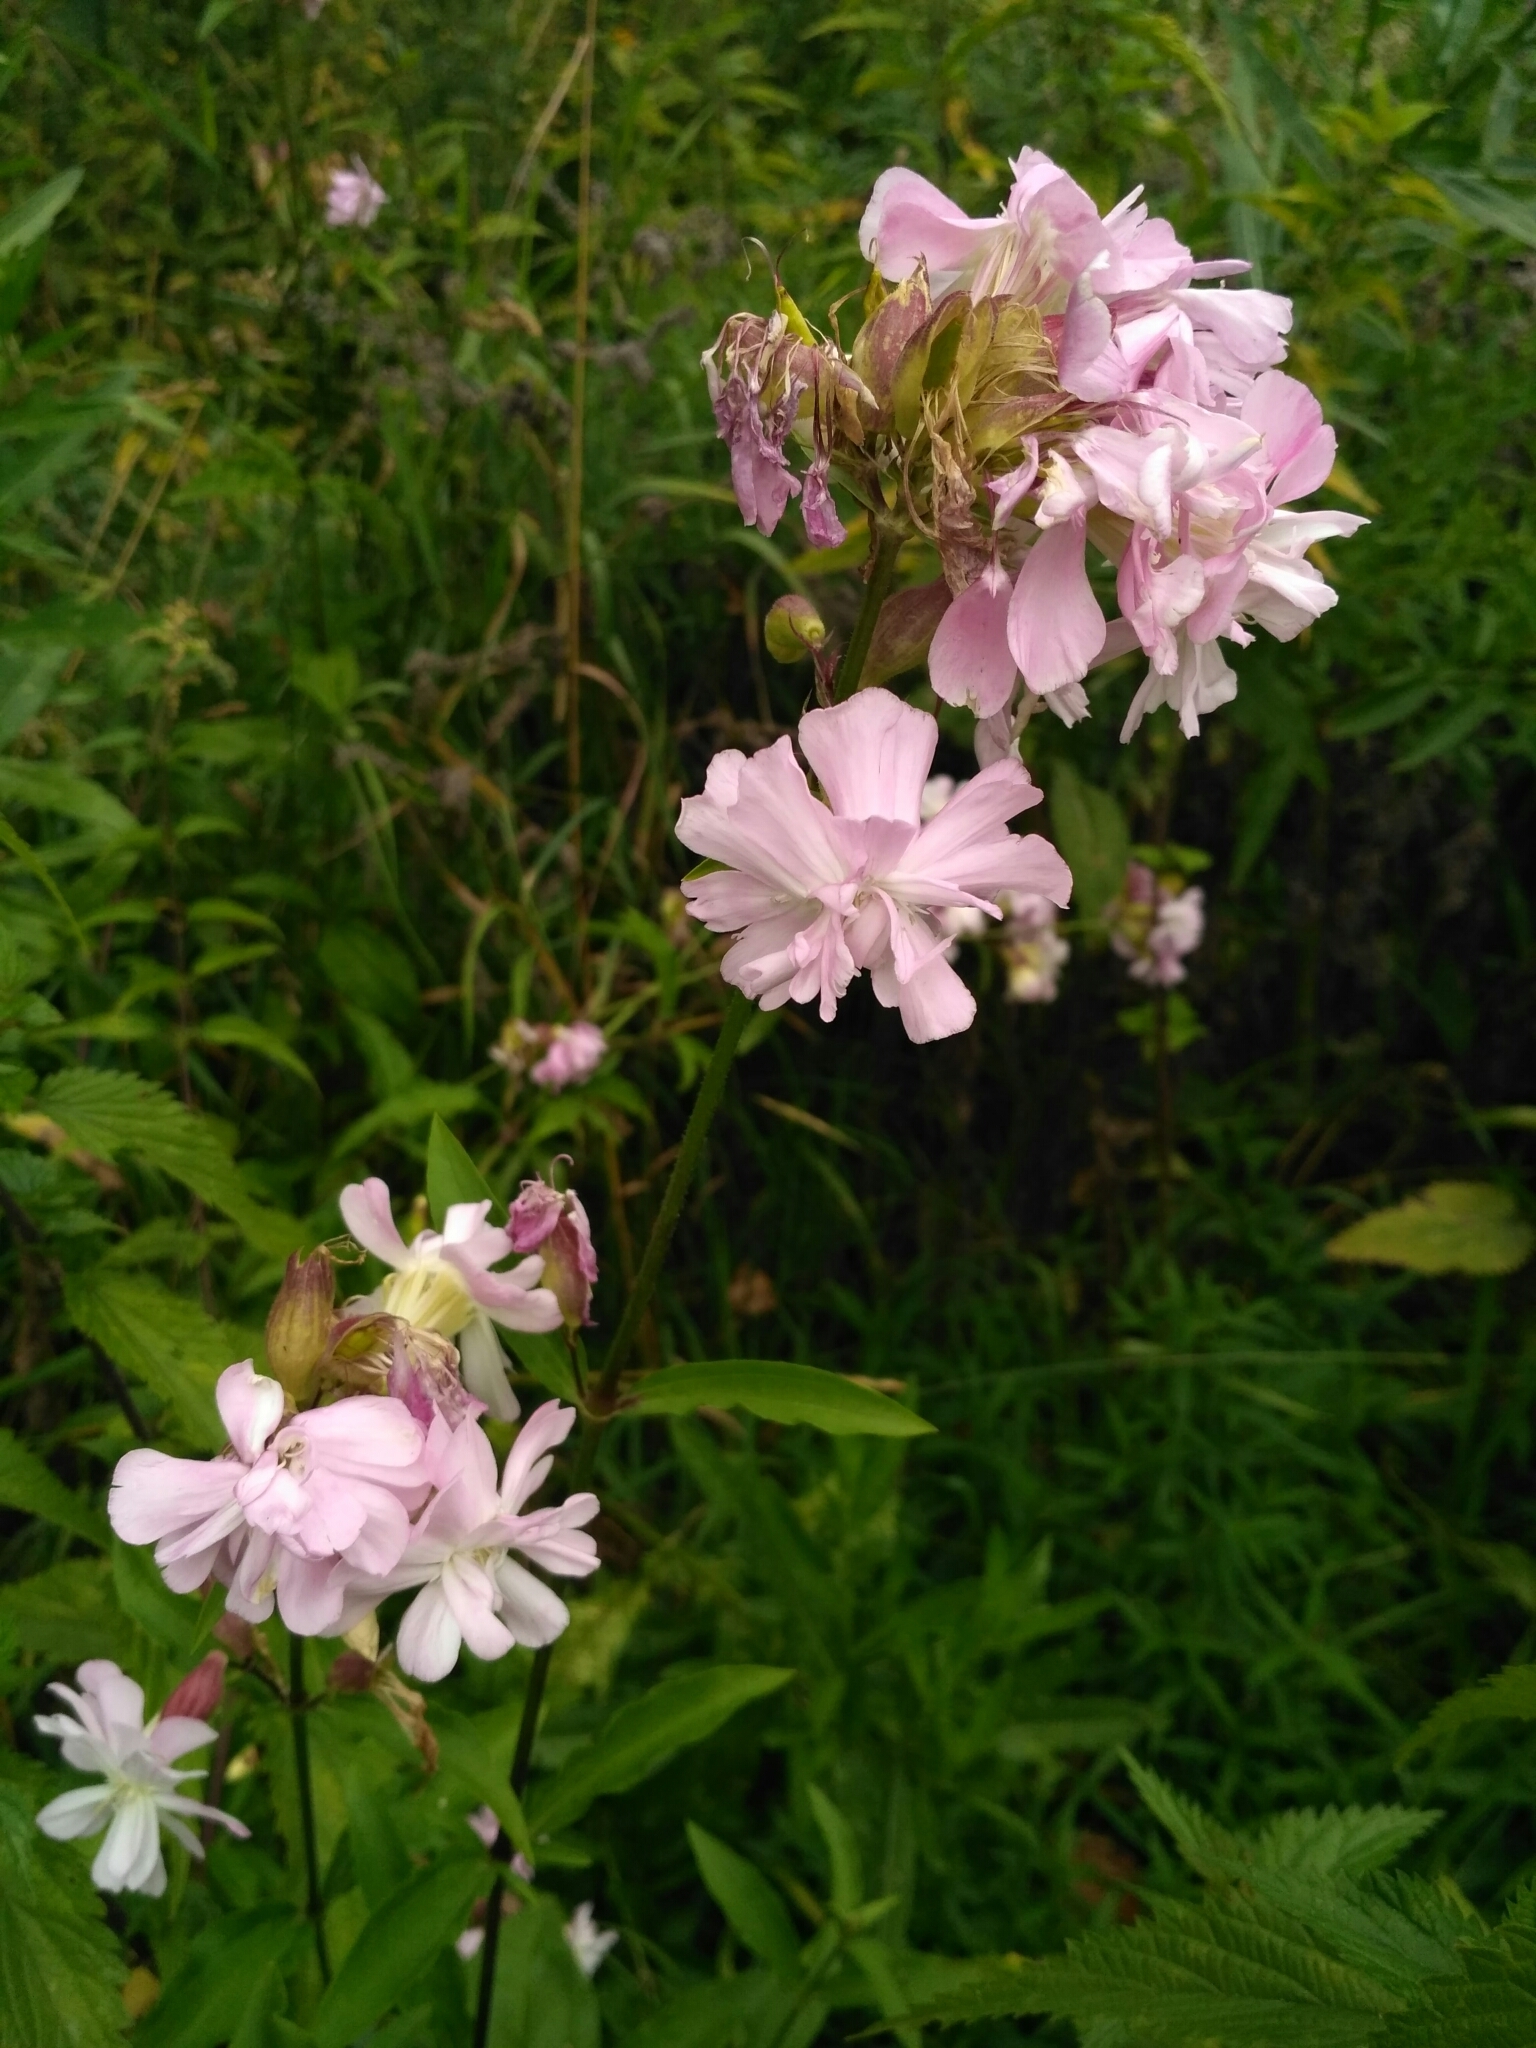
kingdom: Plantae
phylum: Tracheophyta
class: Magnoliopsida
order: Caryophyllales
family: Caryophyllaceae
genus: Saponaria
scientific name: Saponaria officinalis
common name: Soapwort
